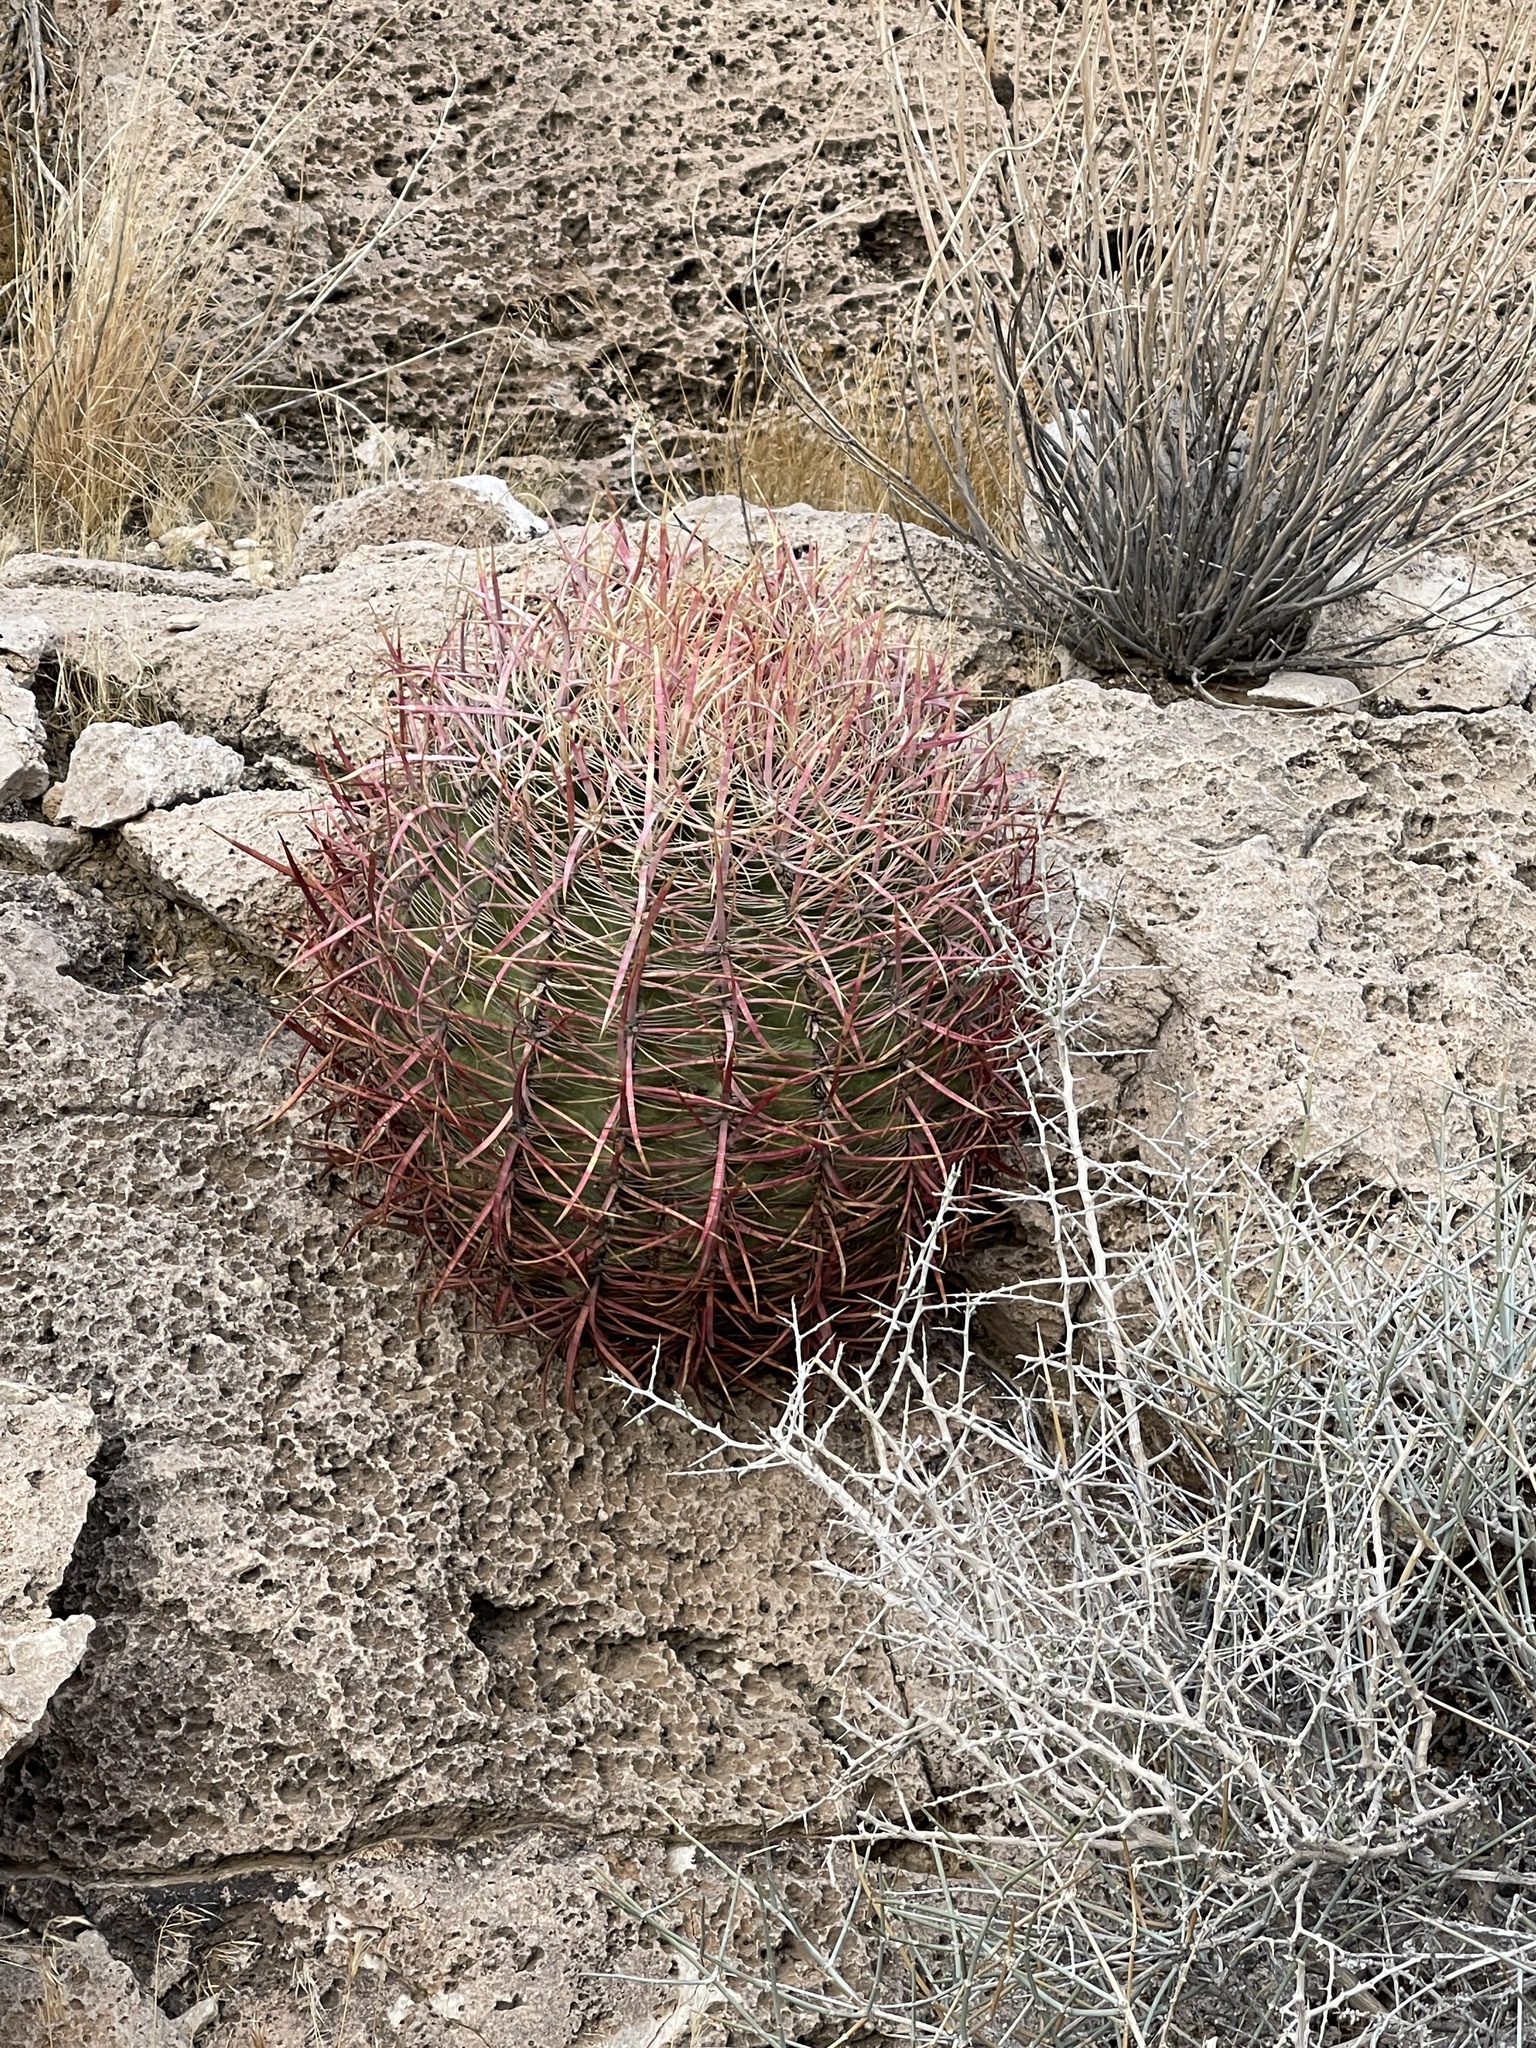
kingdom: Plantae
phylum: Tracheophyta
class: Magnoliopsida
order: Caryophyllales
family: Cactaceae
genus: Ferocactus
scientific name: Ferocactus cylindraceus
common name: California barrel cactus
